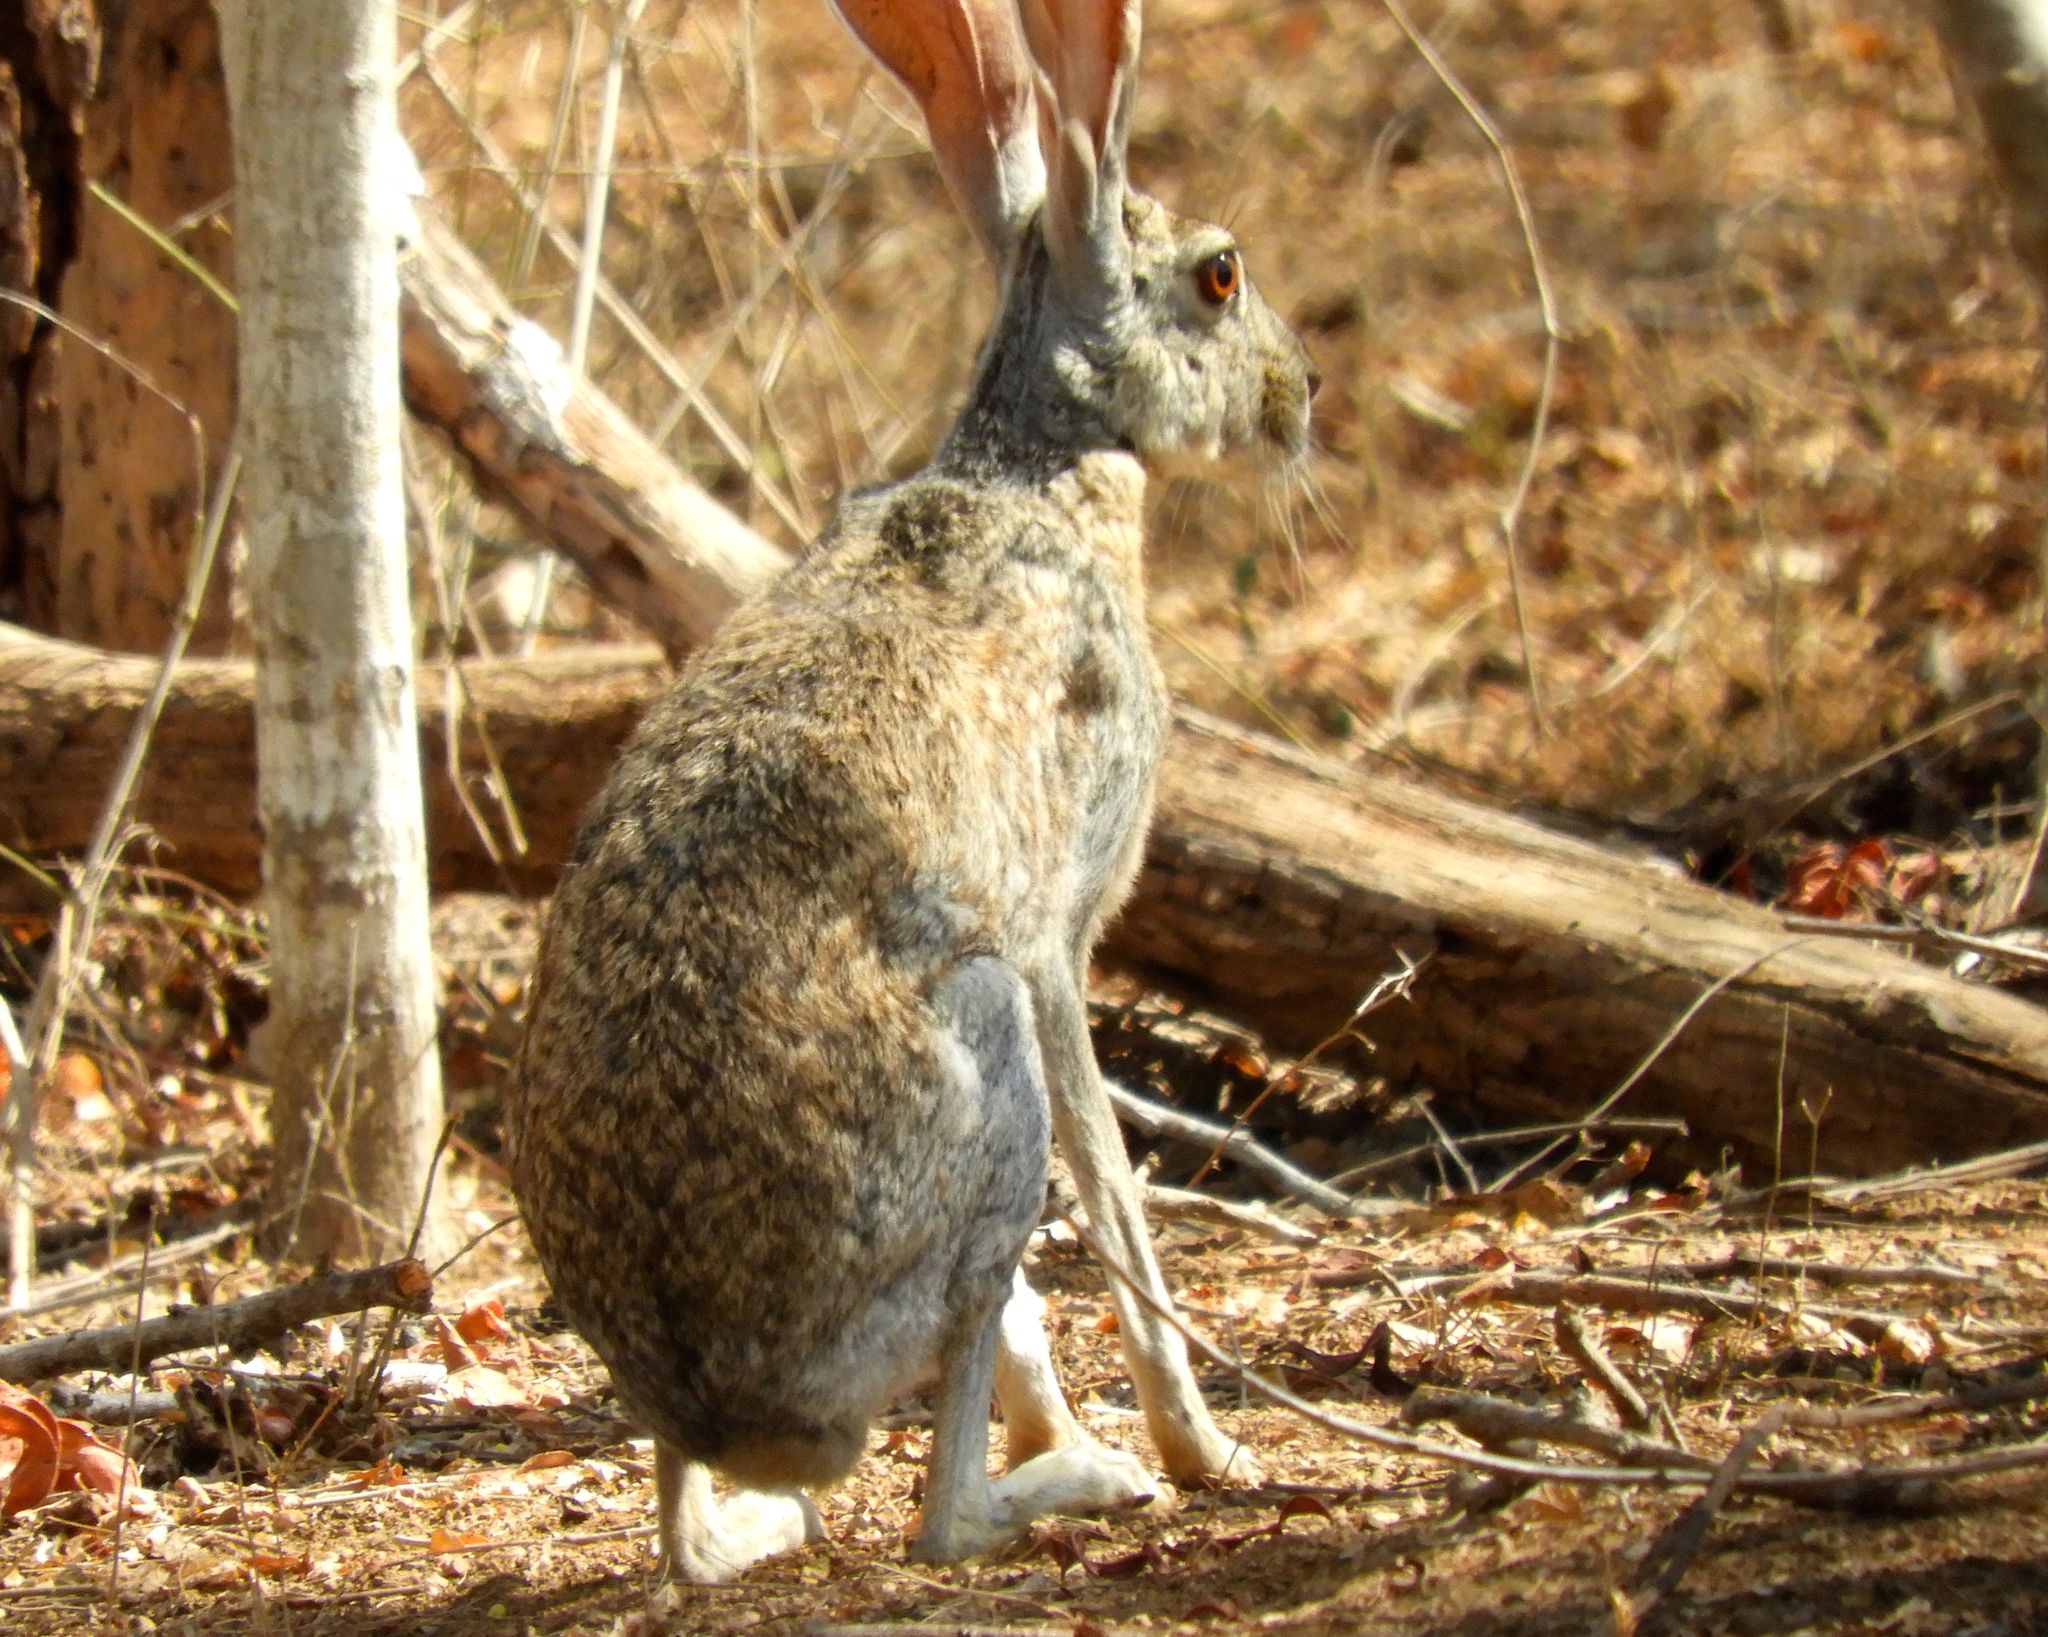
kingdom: Animalia
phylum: Chordata
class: Mammalia
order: Lagomorpha
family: Leporidae
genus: Lepus
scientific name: Lepus alleni
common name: Antelope jackrabbit
